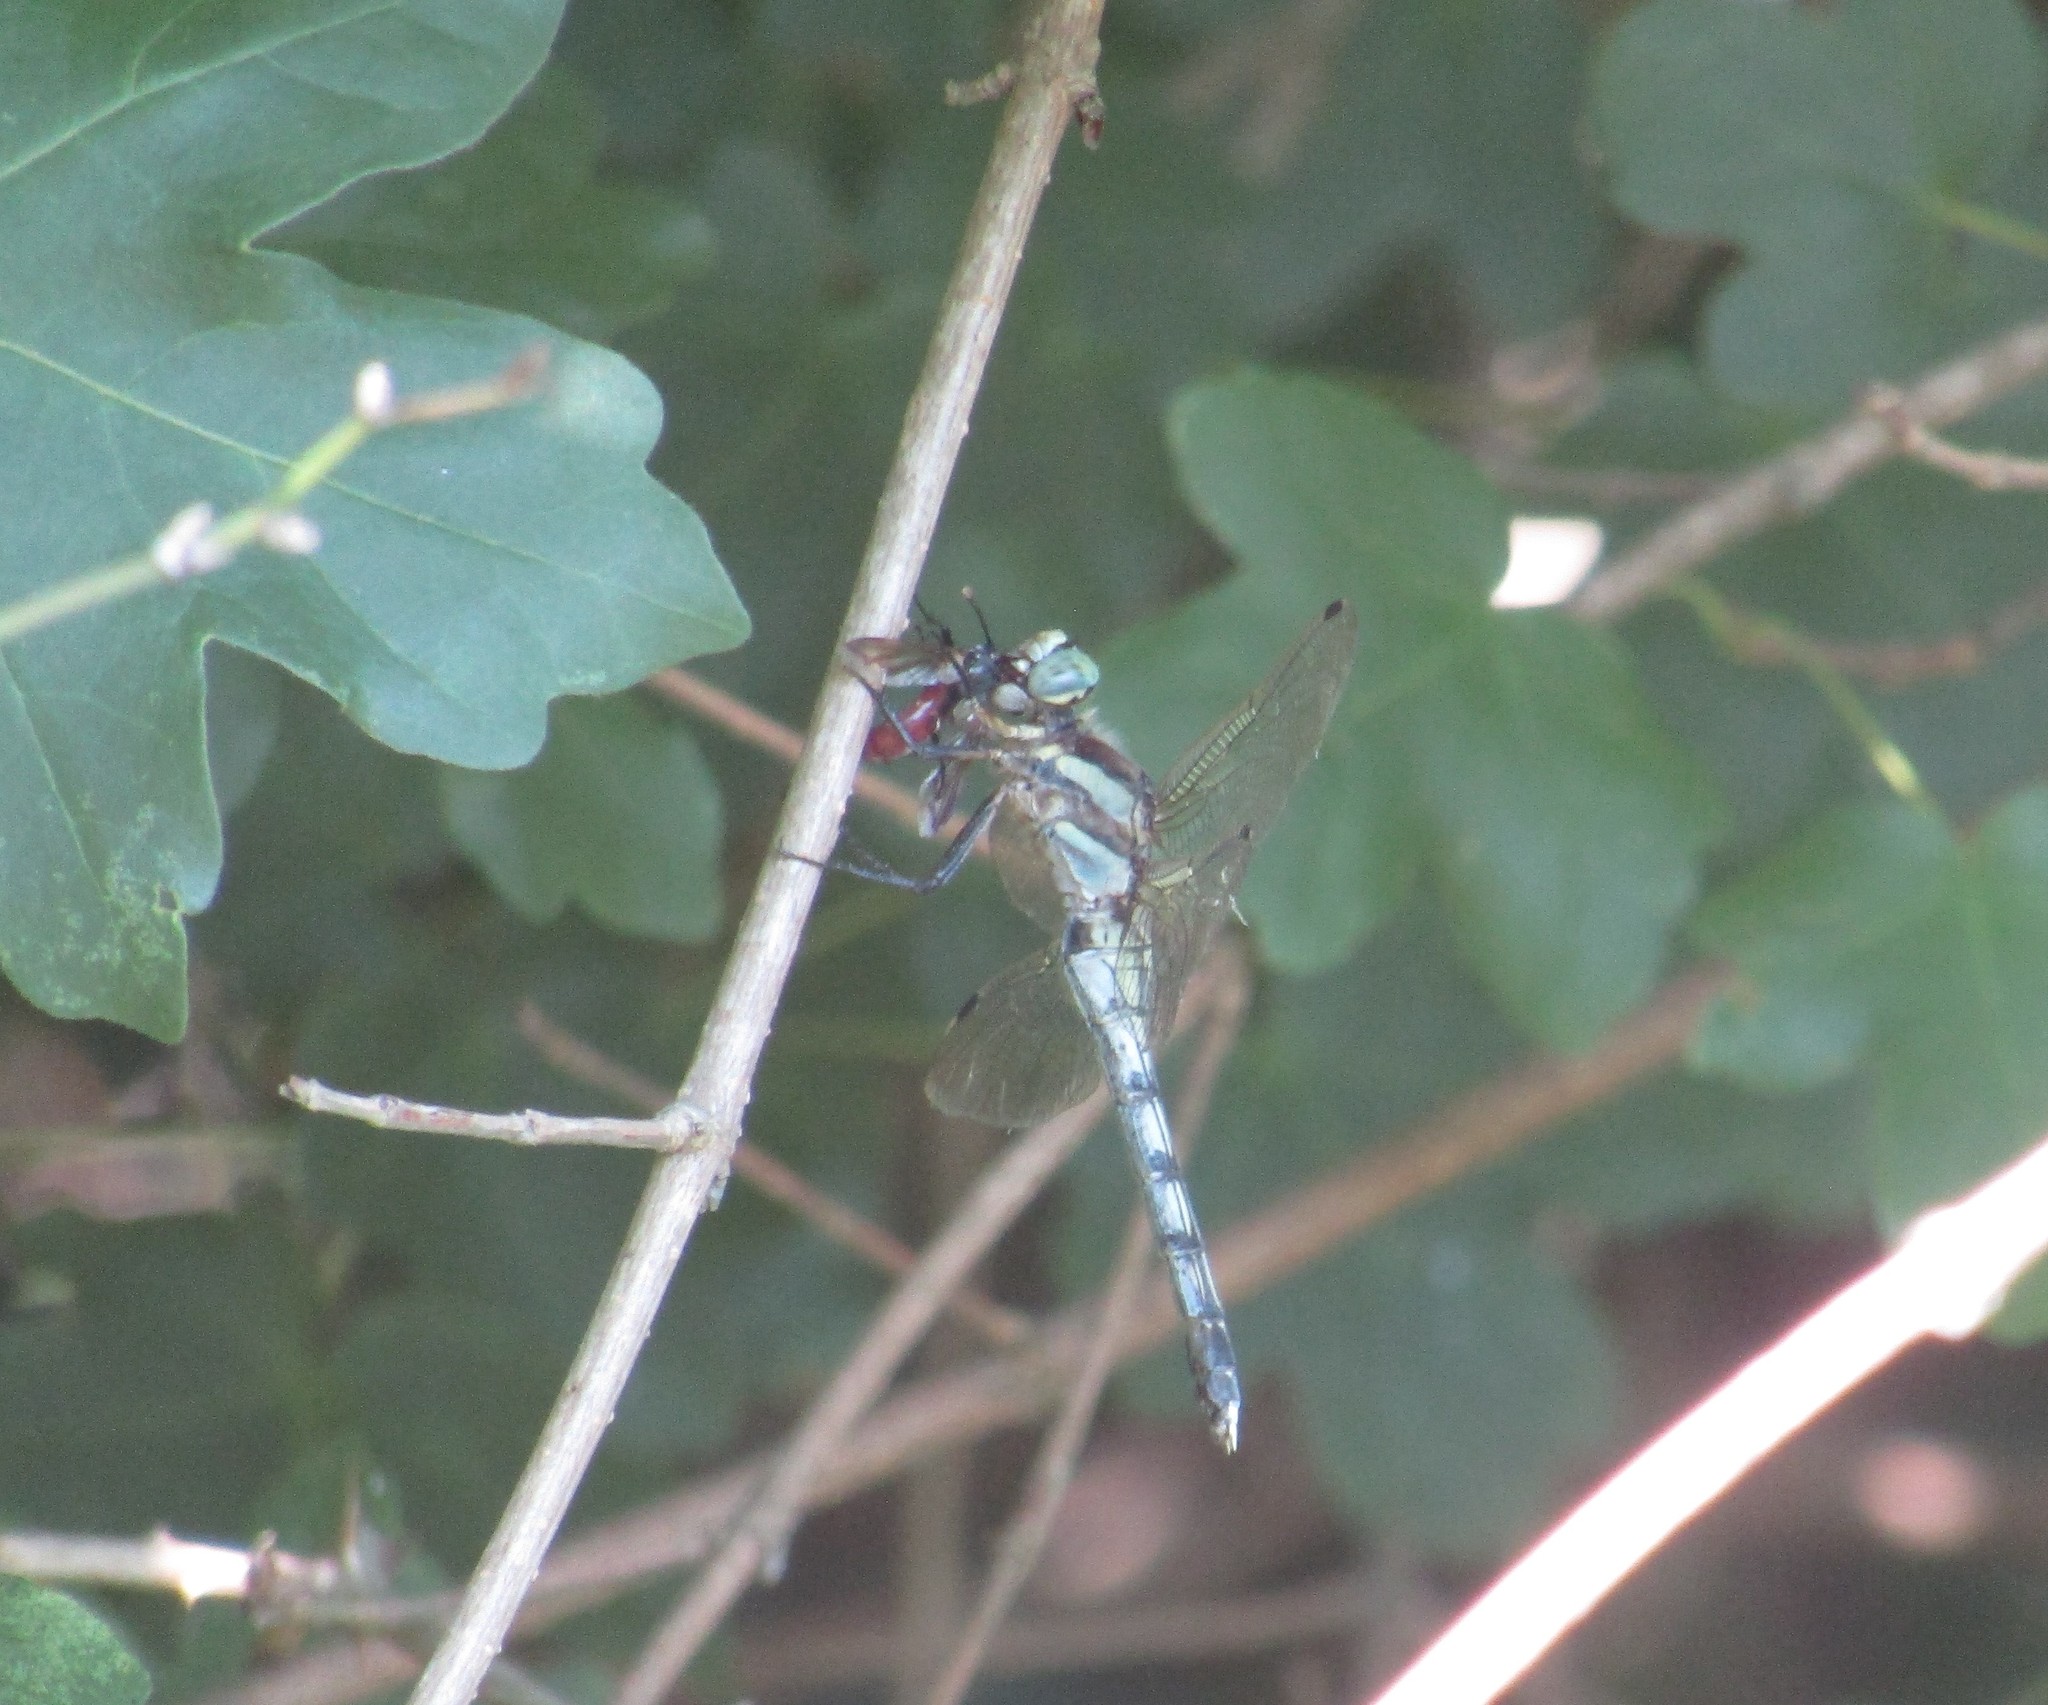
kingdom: Animalia
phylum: Arthropoda
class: Insecta
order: Odonata
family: Libellulidae
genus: Orthetrum
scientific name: Orthetrum albistylum
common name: White-tailed skimmer
